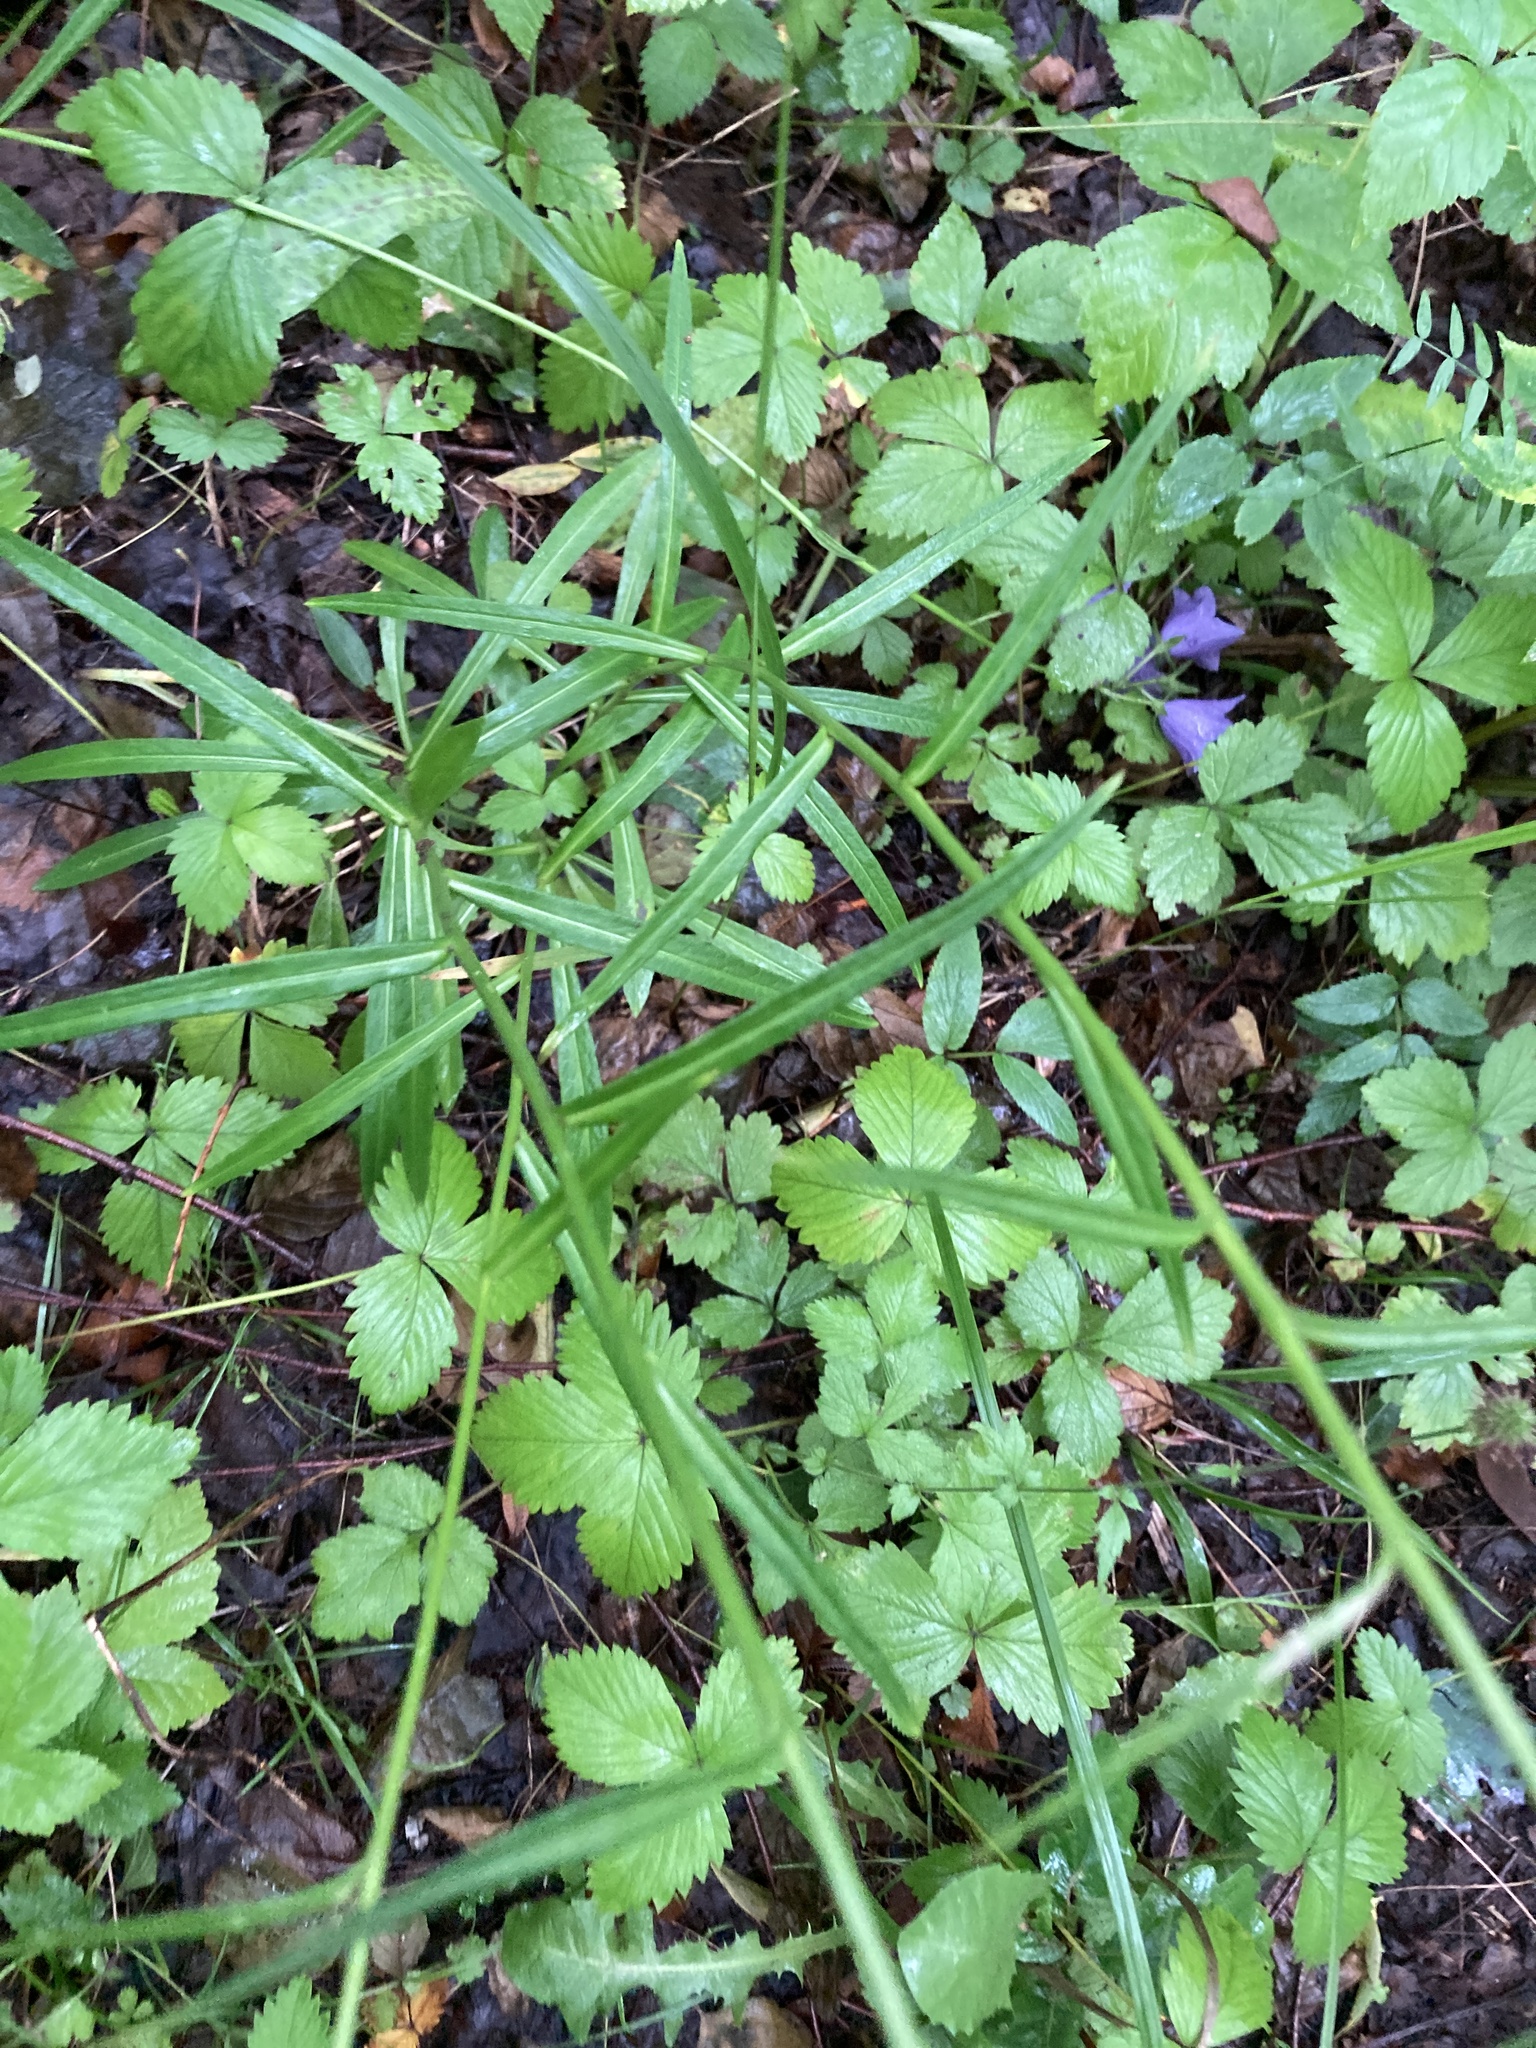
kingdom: Plantae
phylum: Tracheophyta
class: Magnoliopsida
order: Asterales
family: Campanulaceae
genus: Campanula
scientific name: Campanula persicifolia
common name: Peach-leaved bellflower
